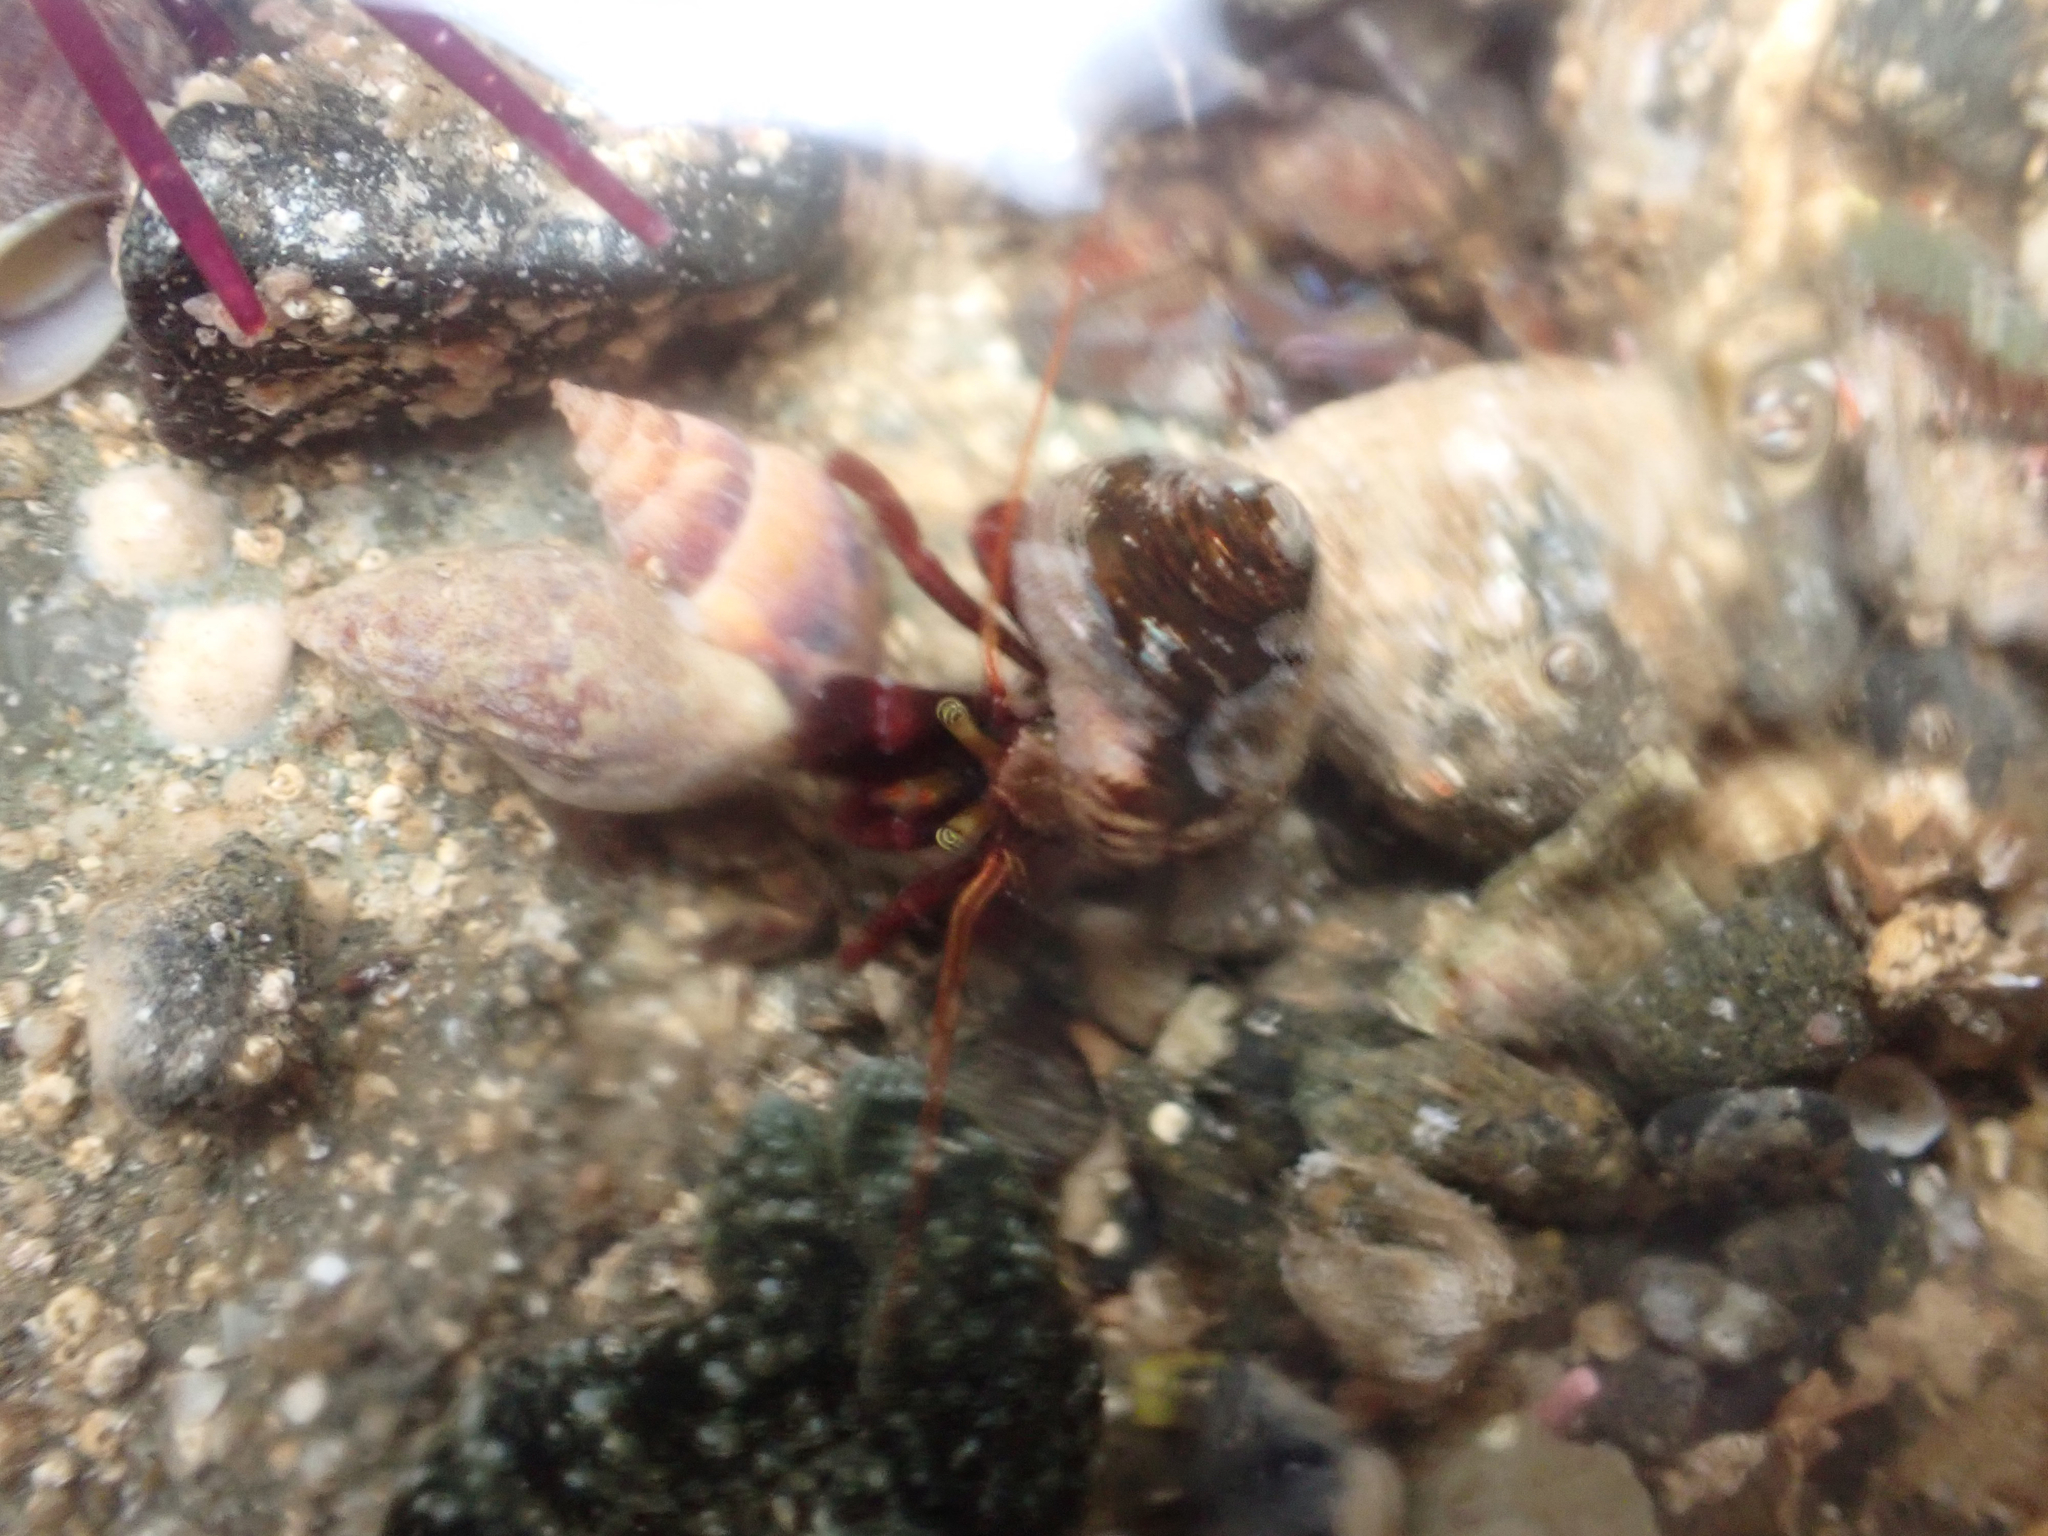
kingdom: Animalia
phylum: Arthropoda
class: Malacostraca
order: Decapoda
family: Paguridae
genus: Pagurus
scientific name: Pagurus hemphilli
